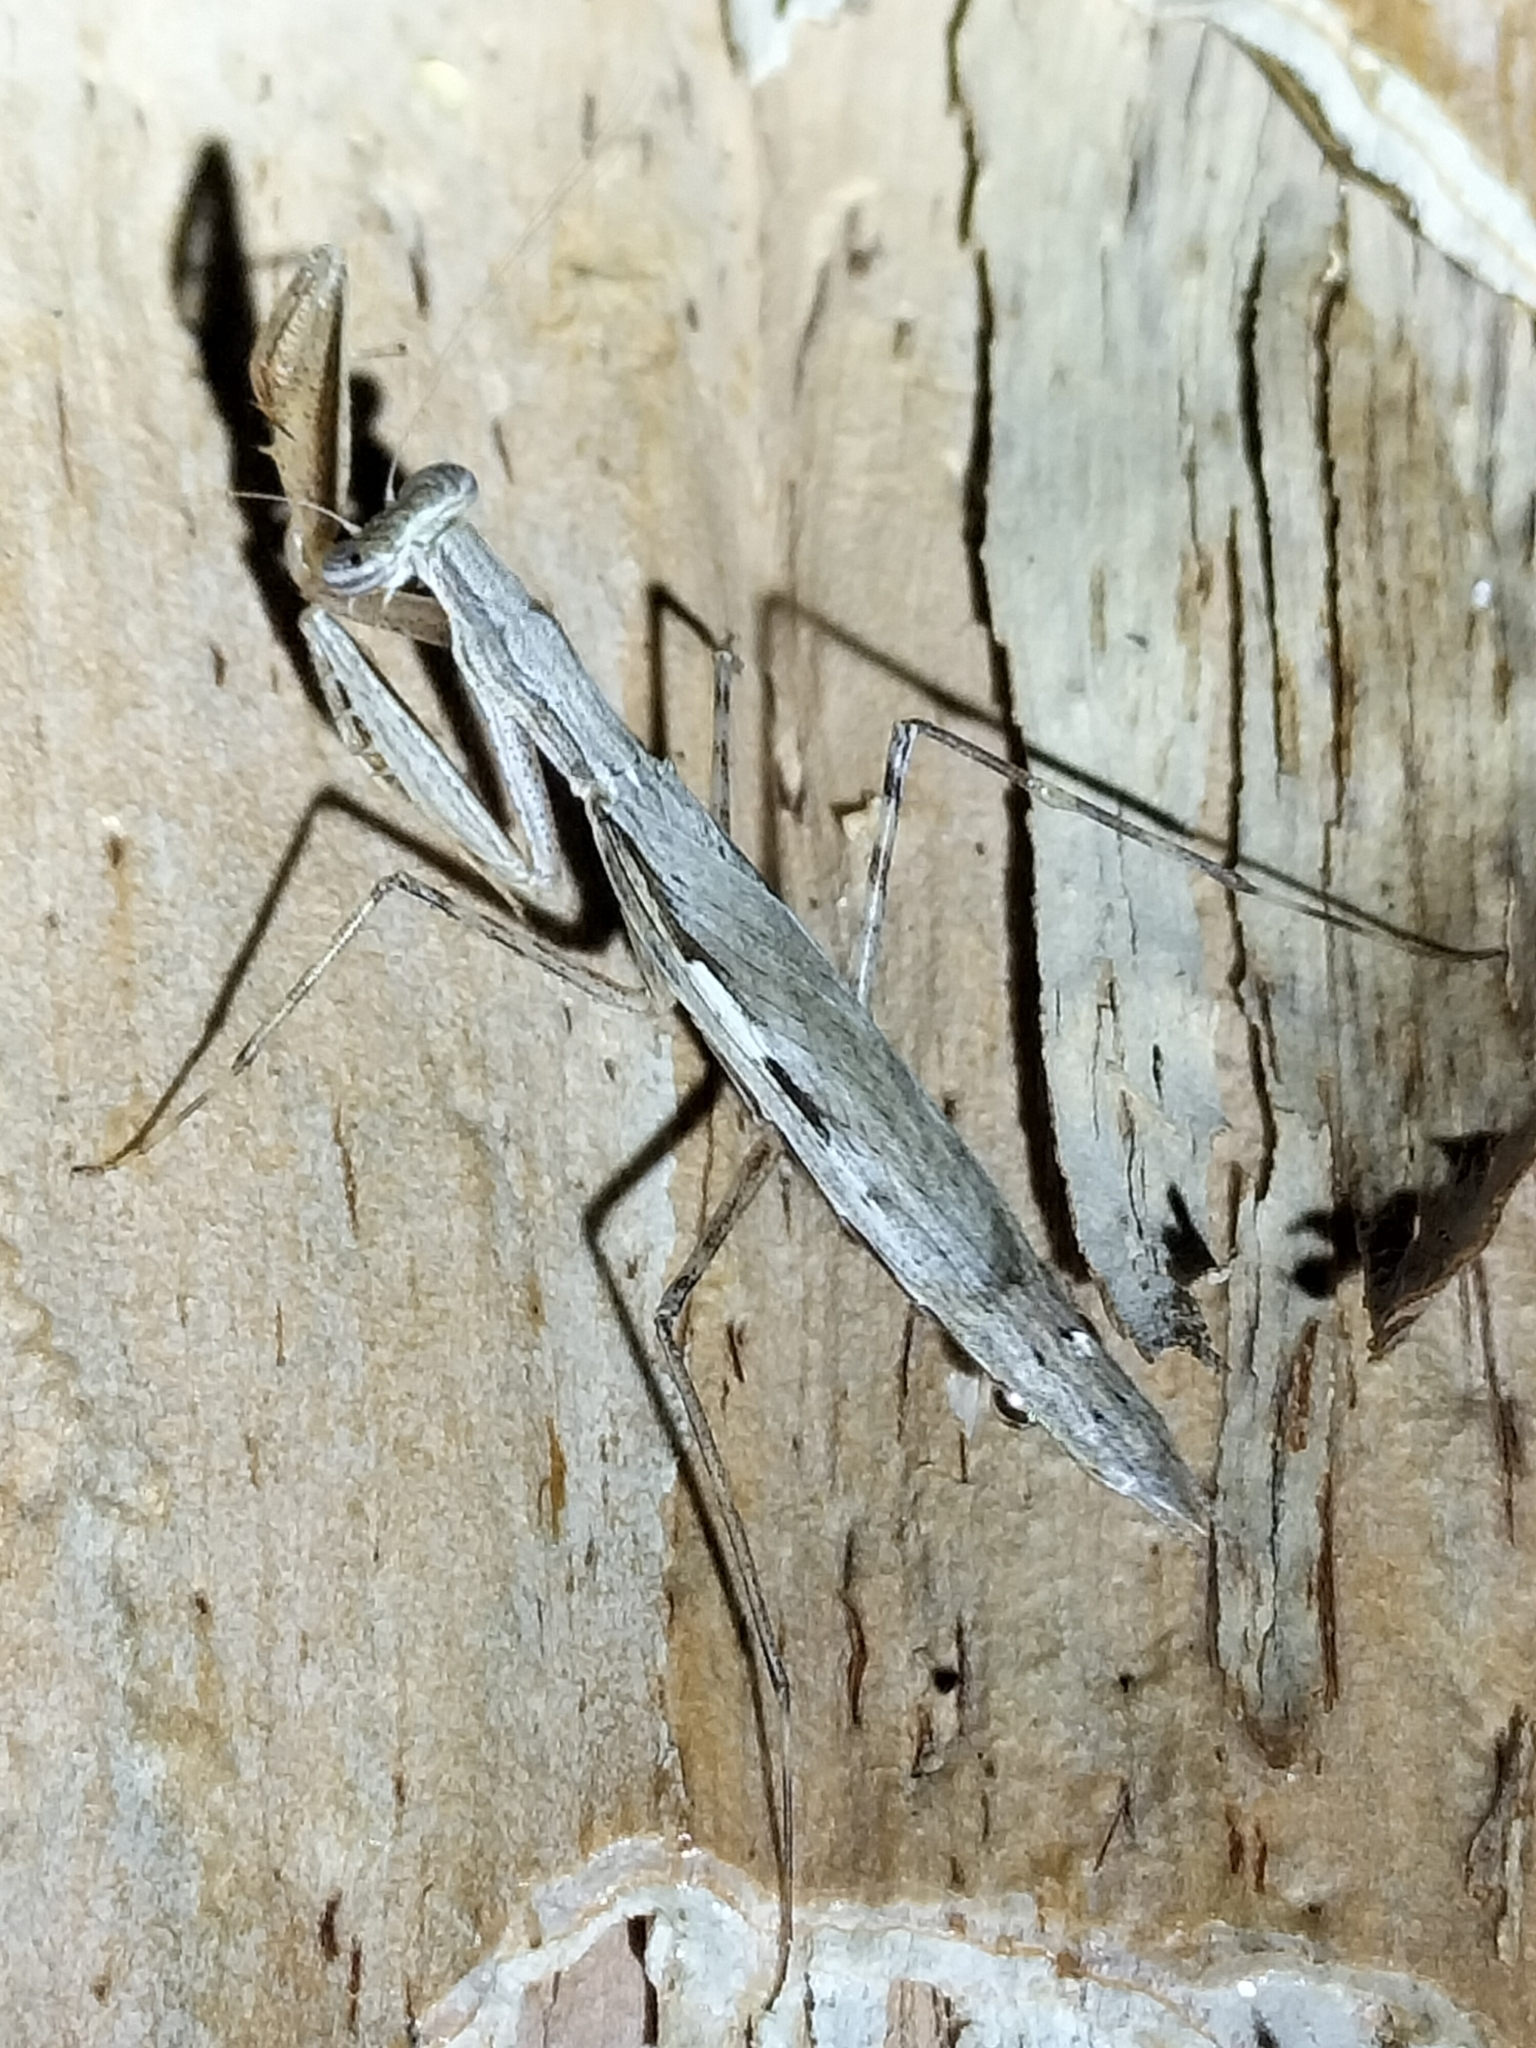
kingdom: Animalia
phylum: Arthropoda
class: Insecta
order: Mantodea
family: Nanomantidae
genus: Ima
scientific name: Ima fusca
